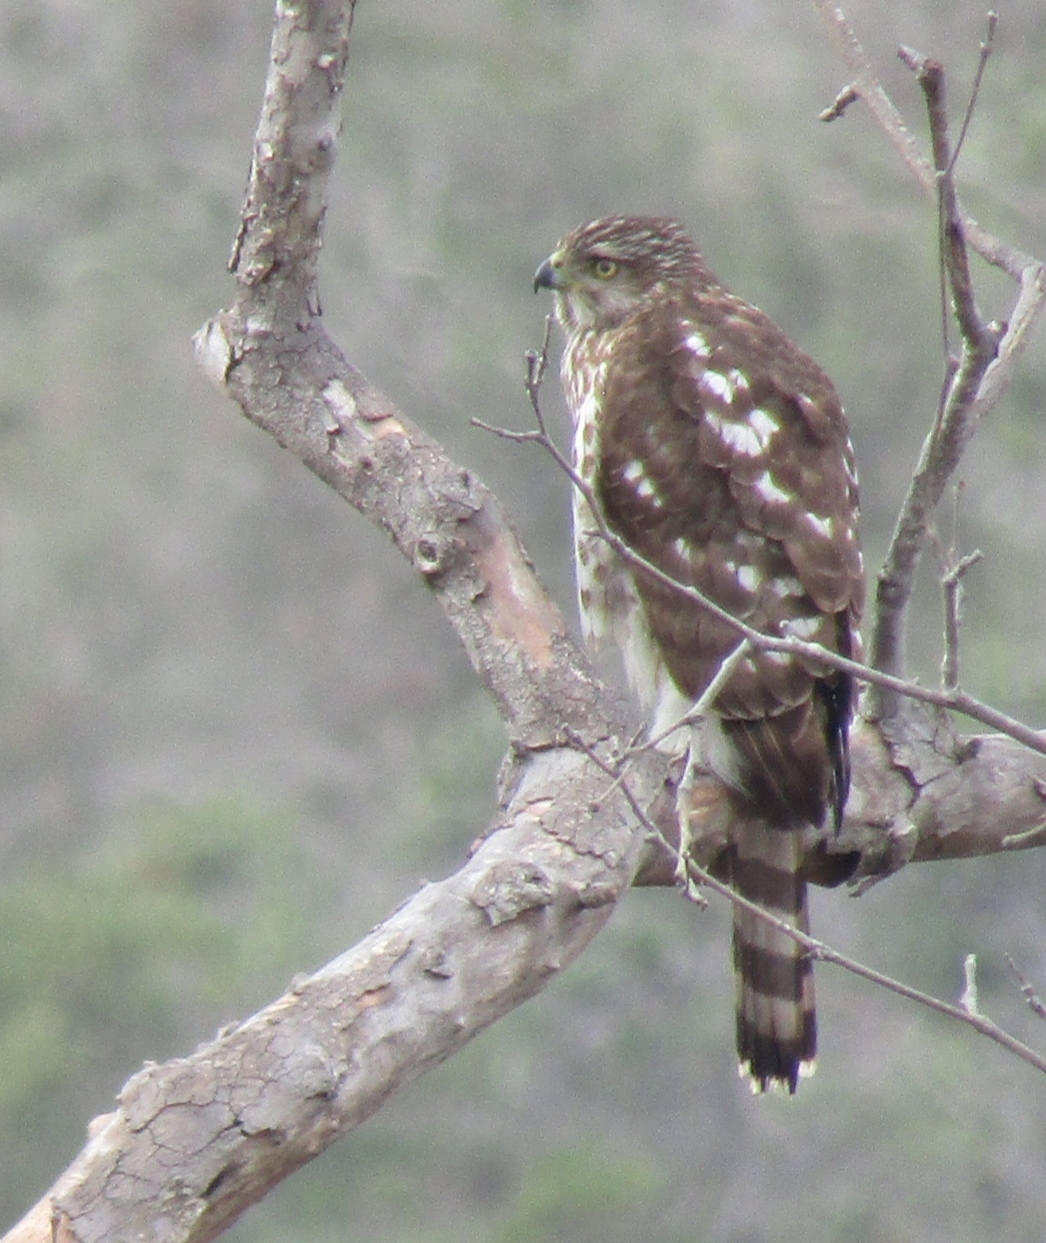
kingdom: Animalia
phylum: Chordata
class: Aves
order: Accipitriformes
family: Accipitridae
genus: Accipiter
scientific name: Accipiter cooperii
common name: Cooper's hawk
